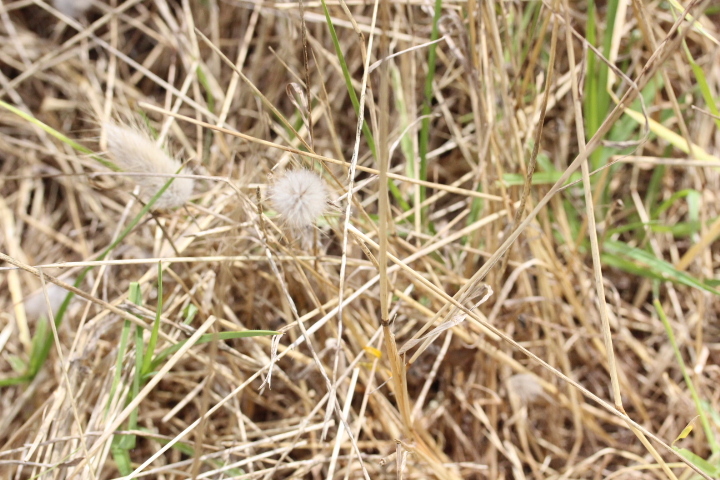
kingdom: Plantae
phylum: Tracheophyta
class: Liliopsida
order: Poales
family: Poaceae
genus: Lagurus
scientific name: Lagurus ovatus
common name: Hare's-tail
